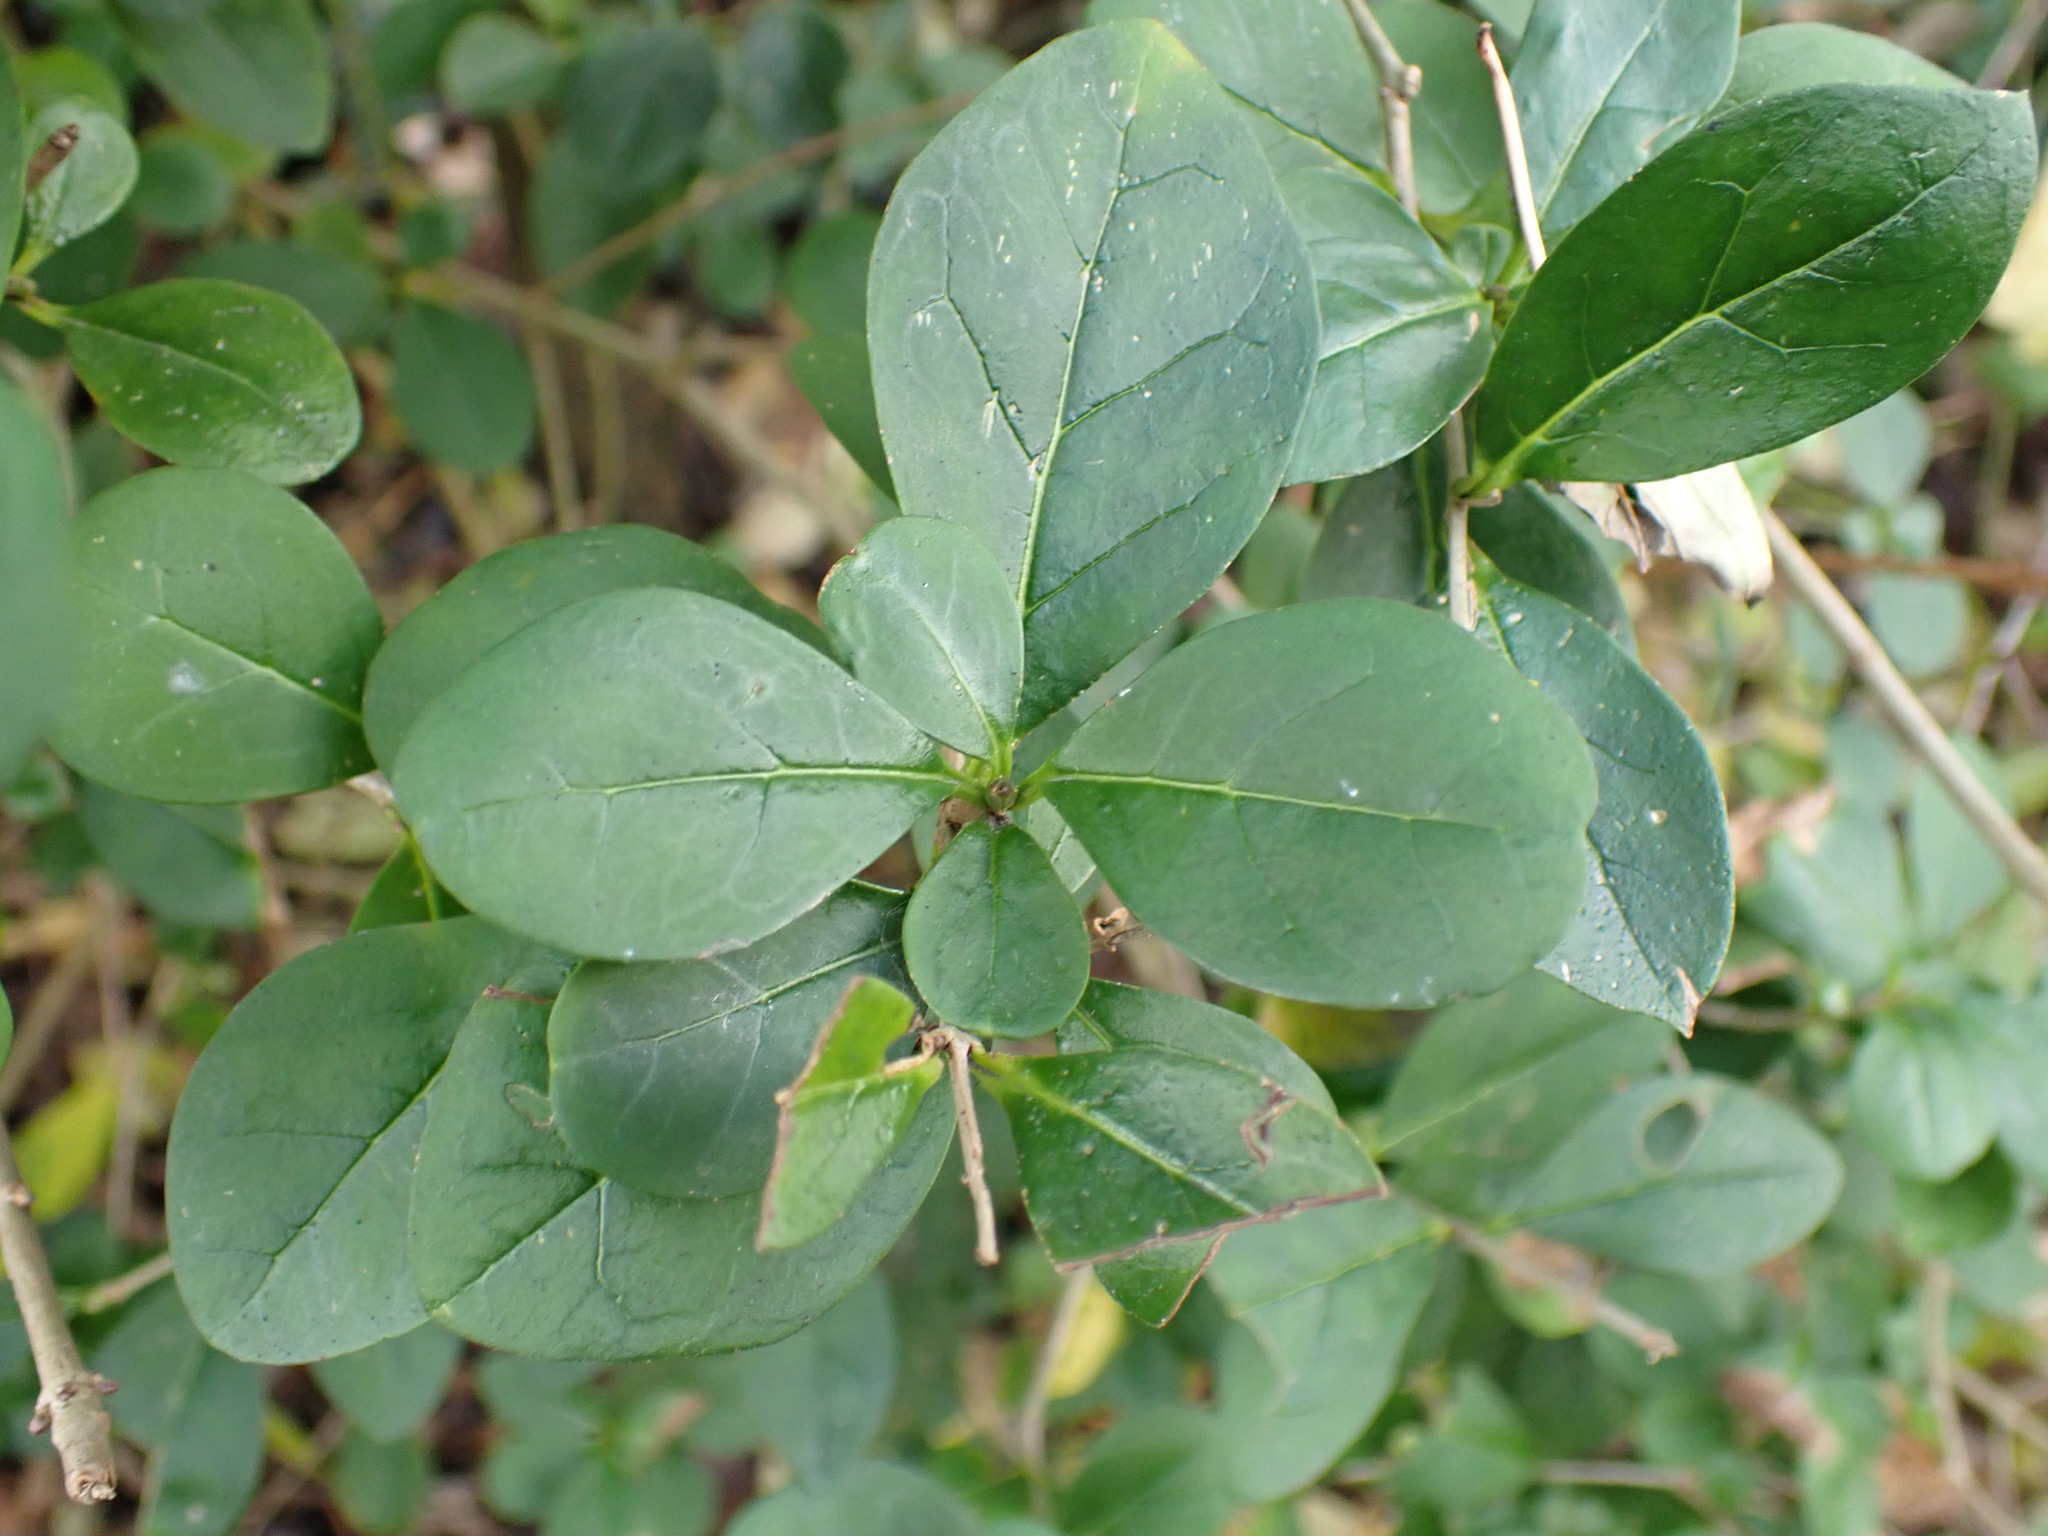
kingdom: Plantae
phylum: Tracheophyta
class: Magnoliopsida
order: Lamiales
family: Oleaceae
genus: Ligustrum
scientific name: Ligustrum ovalifolium
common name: California privet
